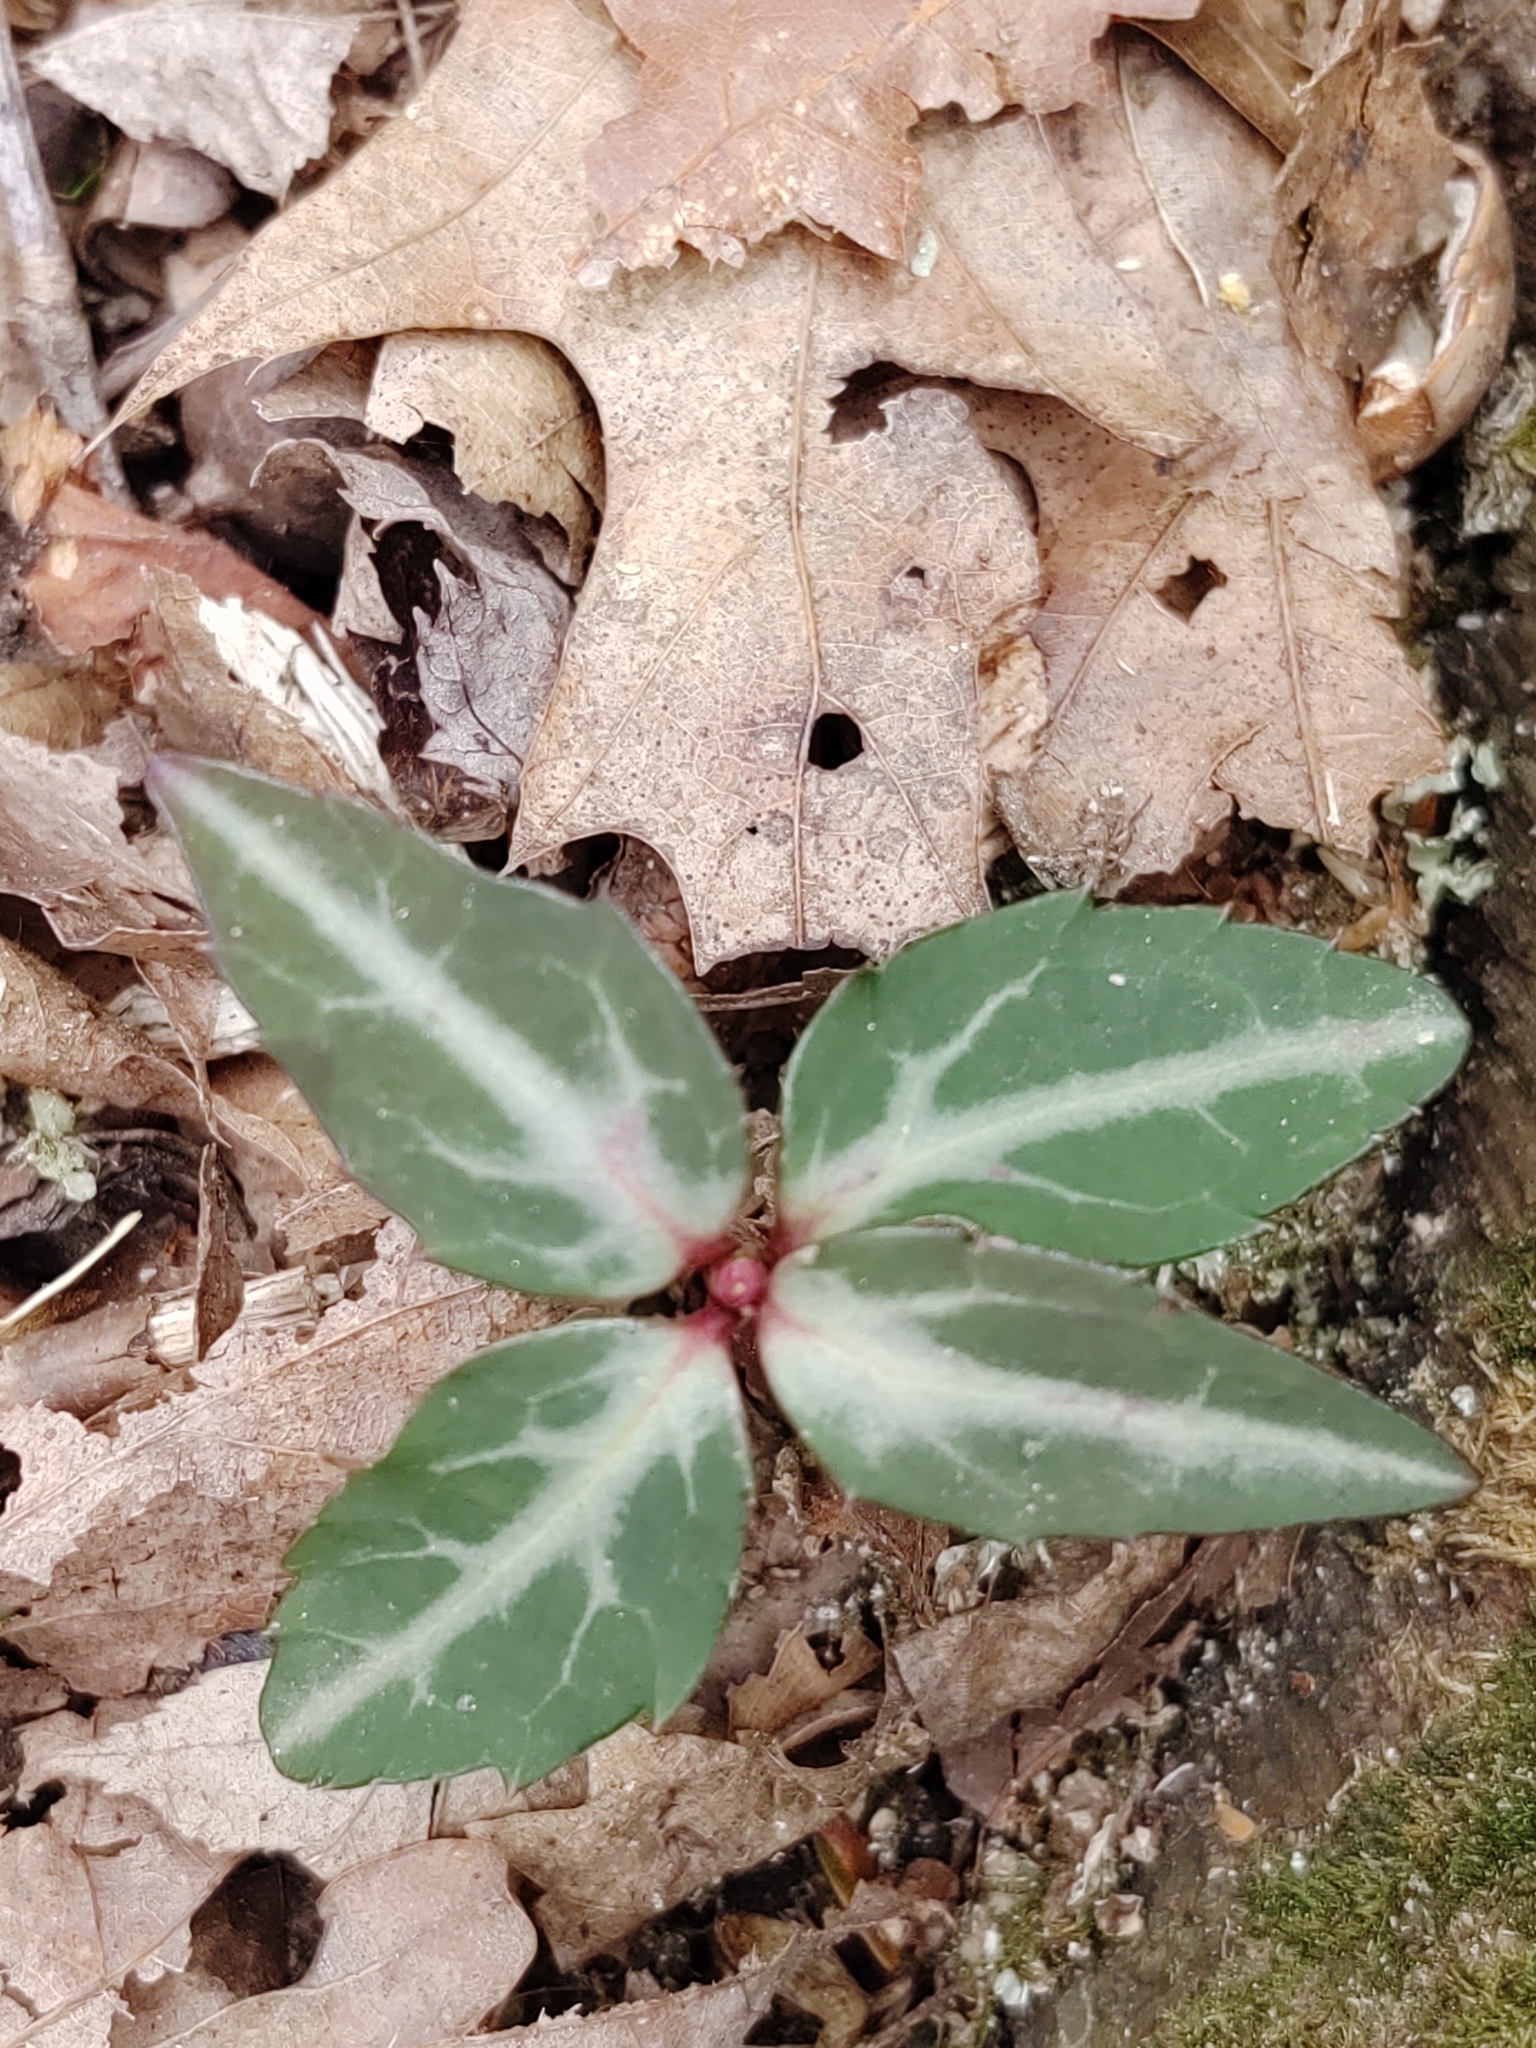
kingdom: Plantae
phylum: Tracheophyta
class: Magnoliopsida
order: Ericales
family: Ericaceae
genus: Chimaphila
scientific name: Chimaphila maculata
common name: Spotted pipsissewa
